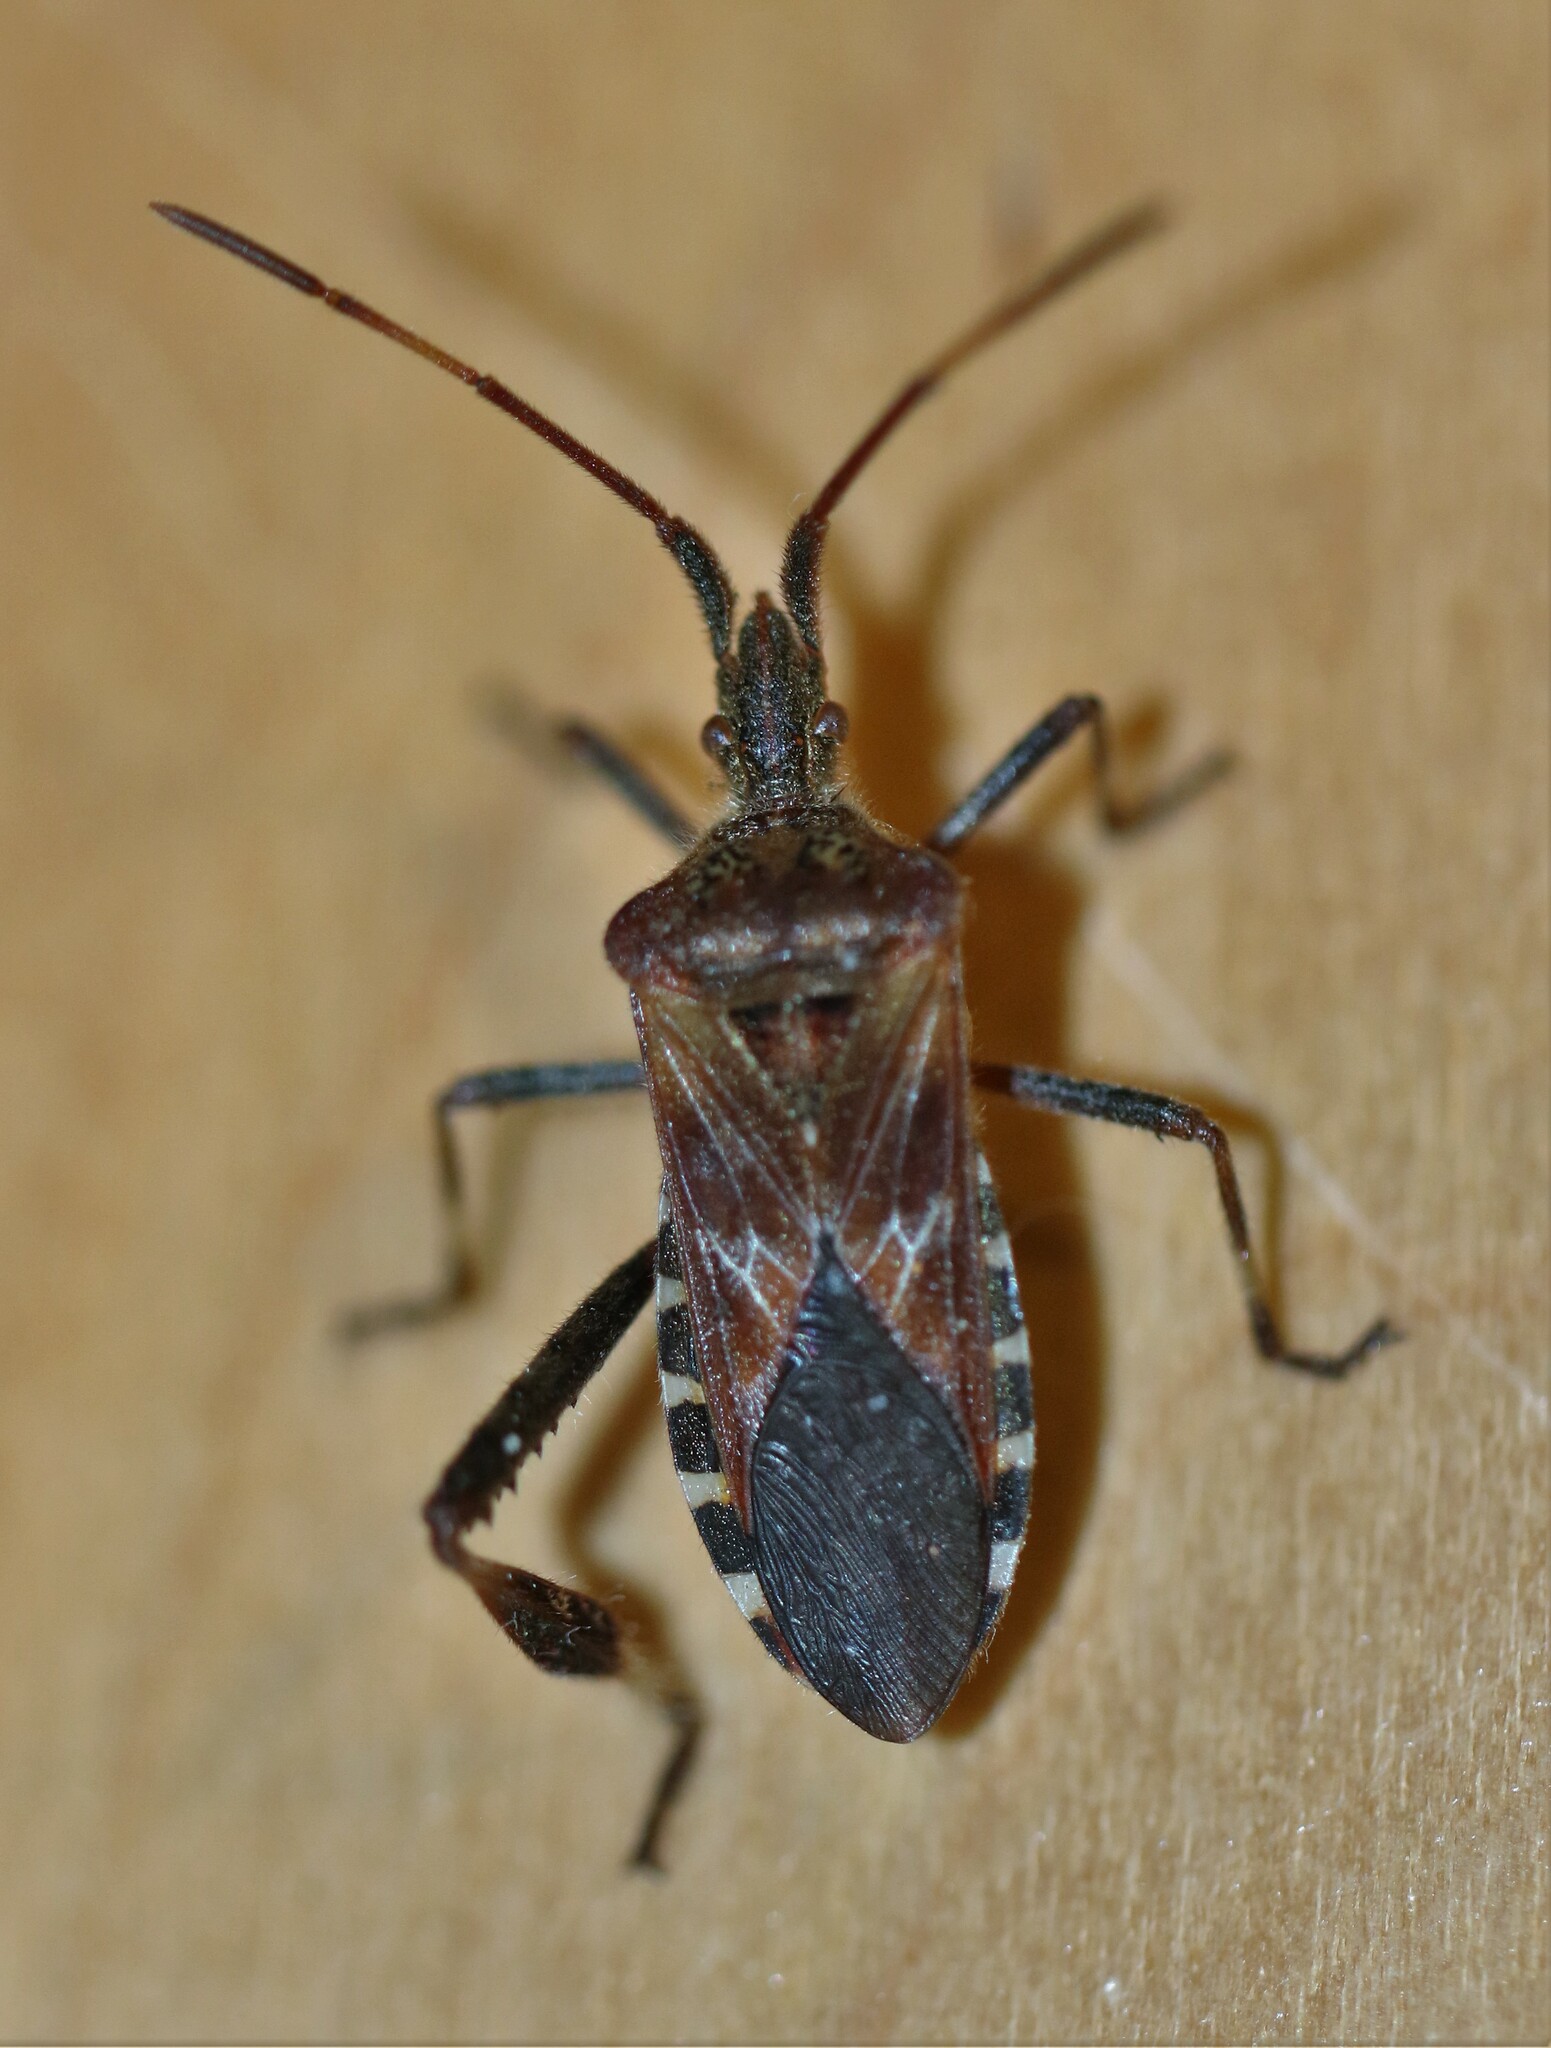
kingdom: Animalia
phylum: Arthropoda
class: Insecta
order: Hemiptera
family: Coreidae
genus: Leptoglossus
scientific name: Leptoglossus occidentalis
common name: Western conifer-seed bug
